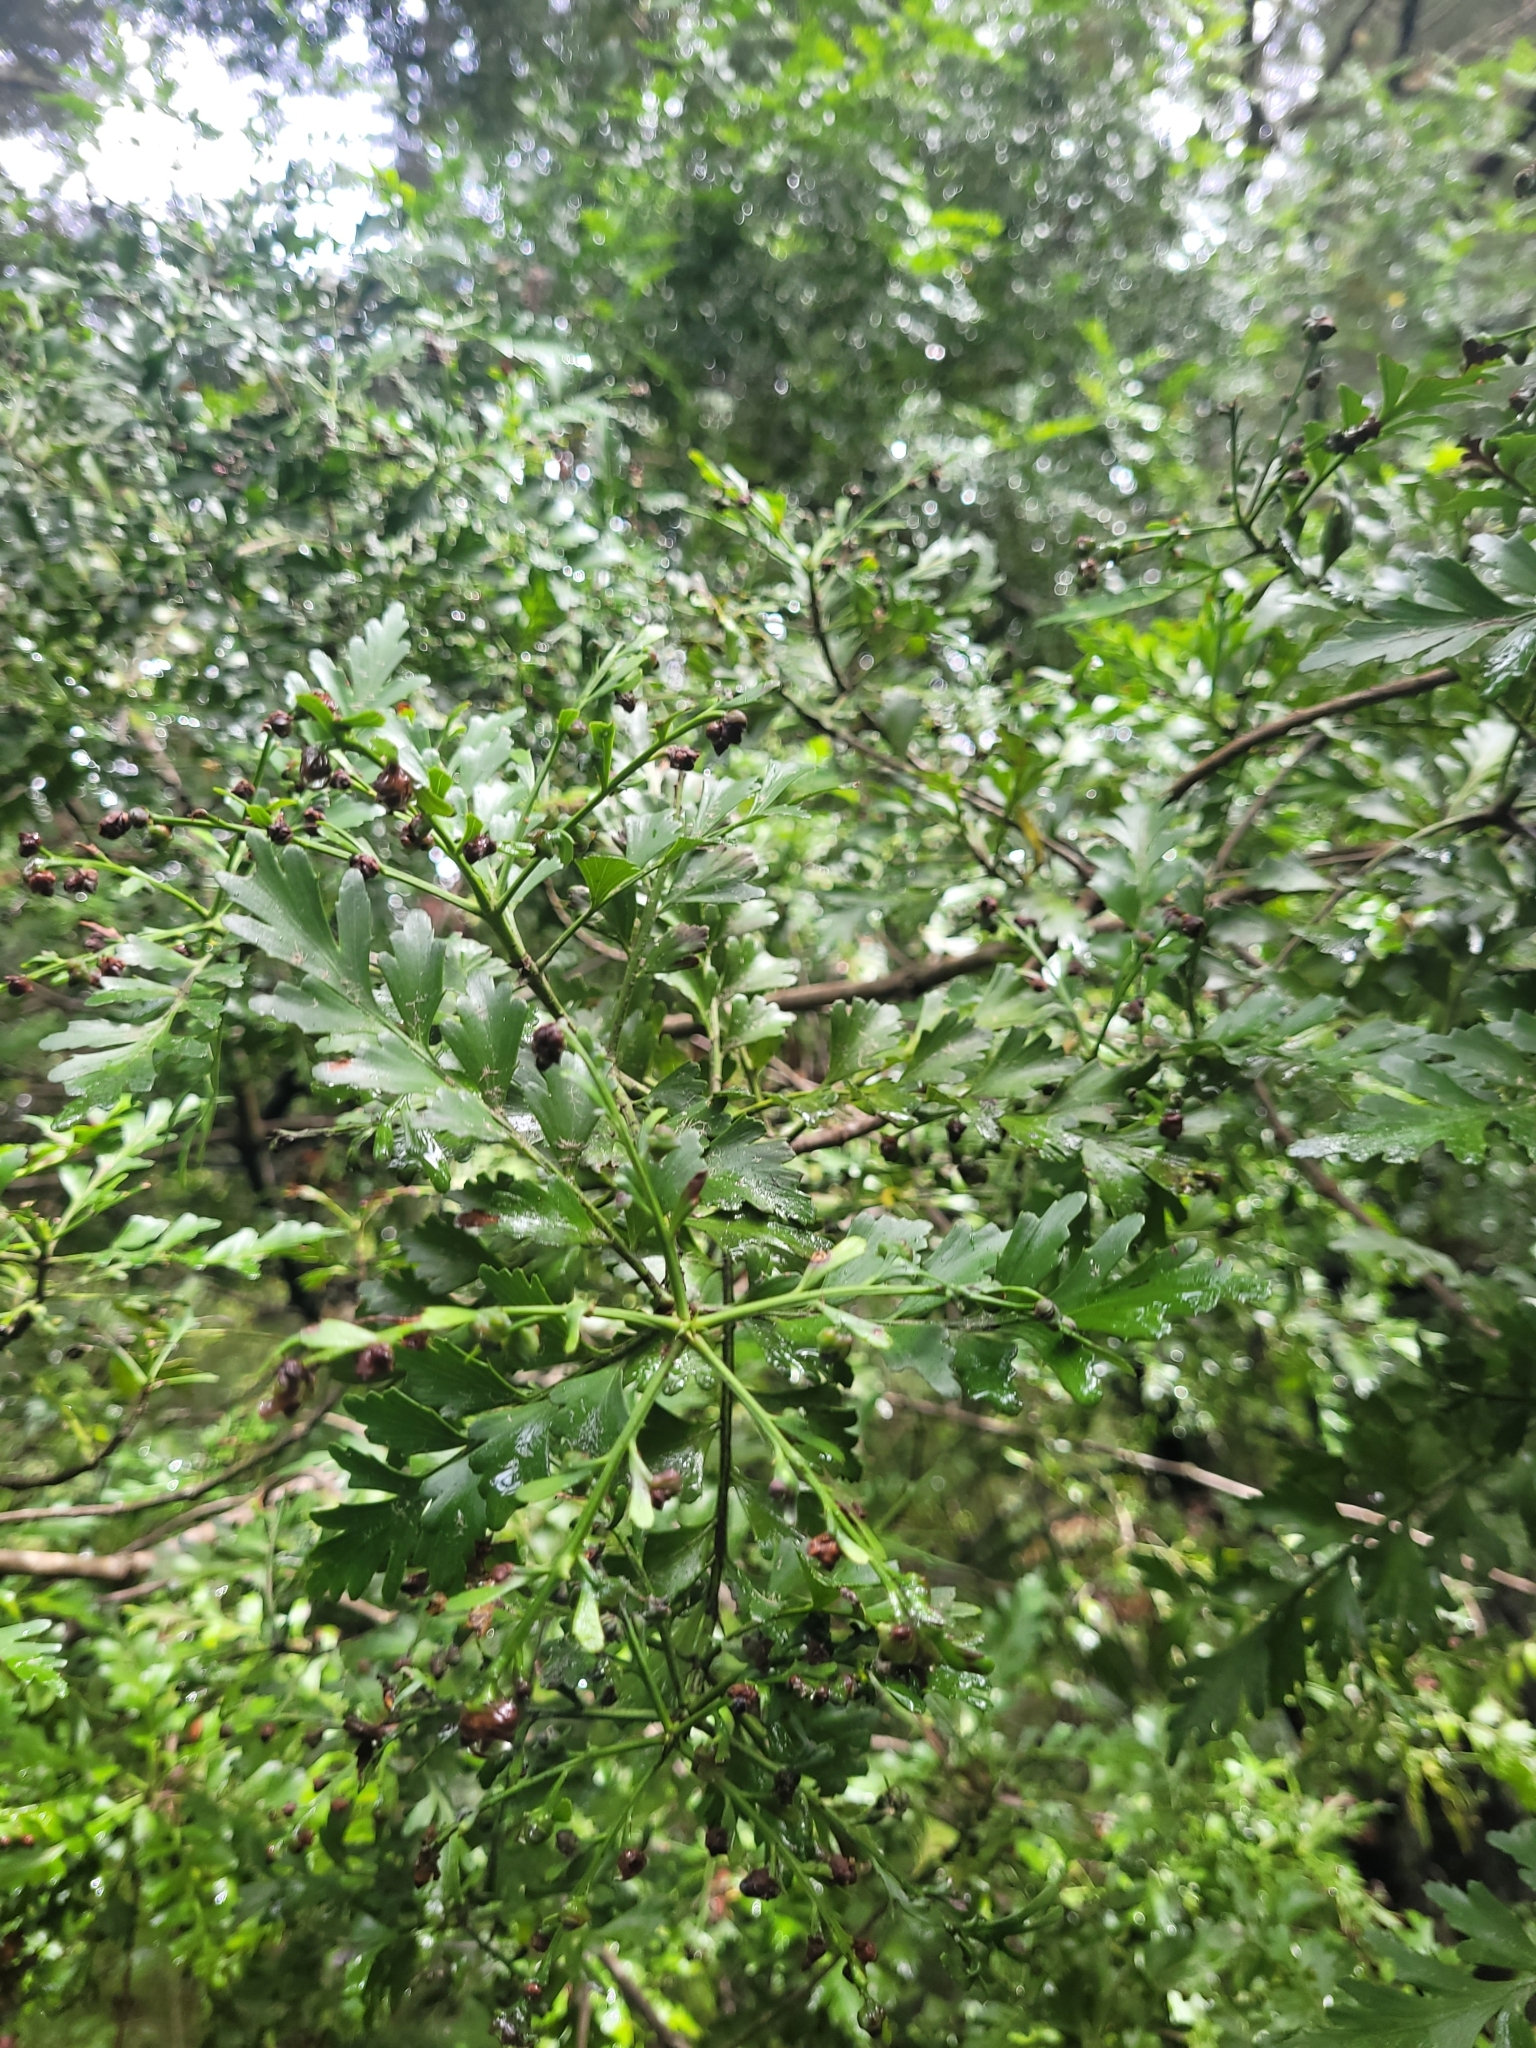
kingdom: Plantae
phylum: Tracheophyta
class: Pinopsida
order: Pinales
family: Phyllocladaceae
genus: Phyllocladus
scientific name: Phyllocladus trichomanoides
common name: Celery pine
